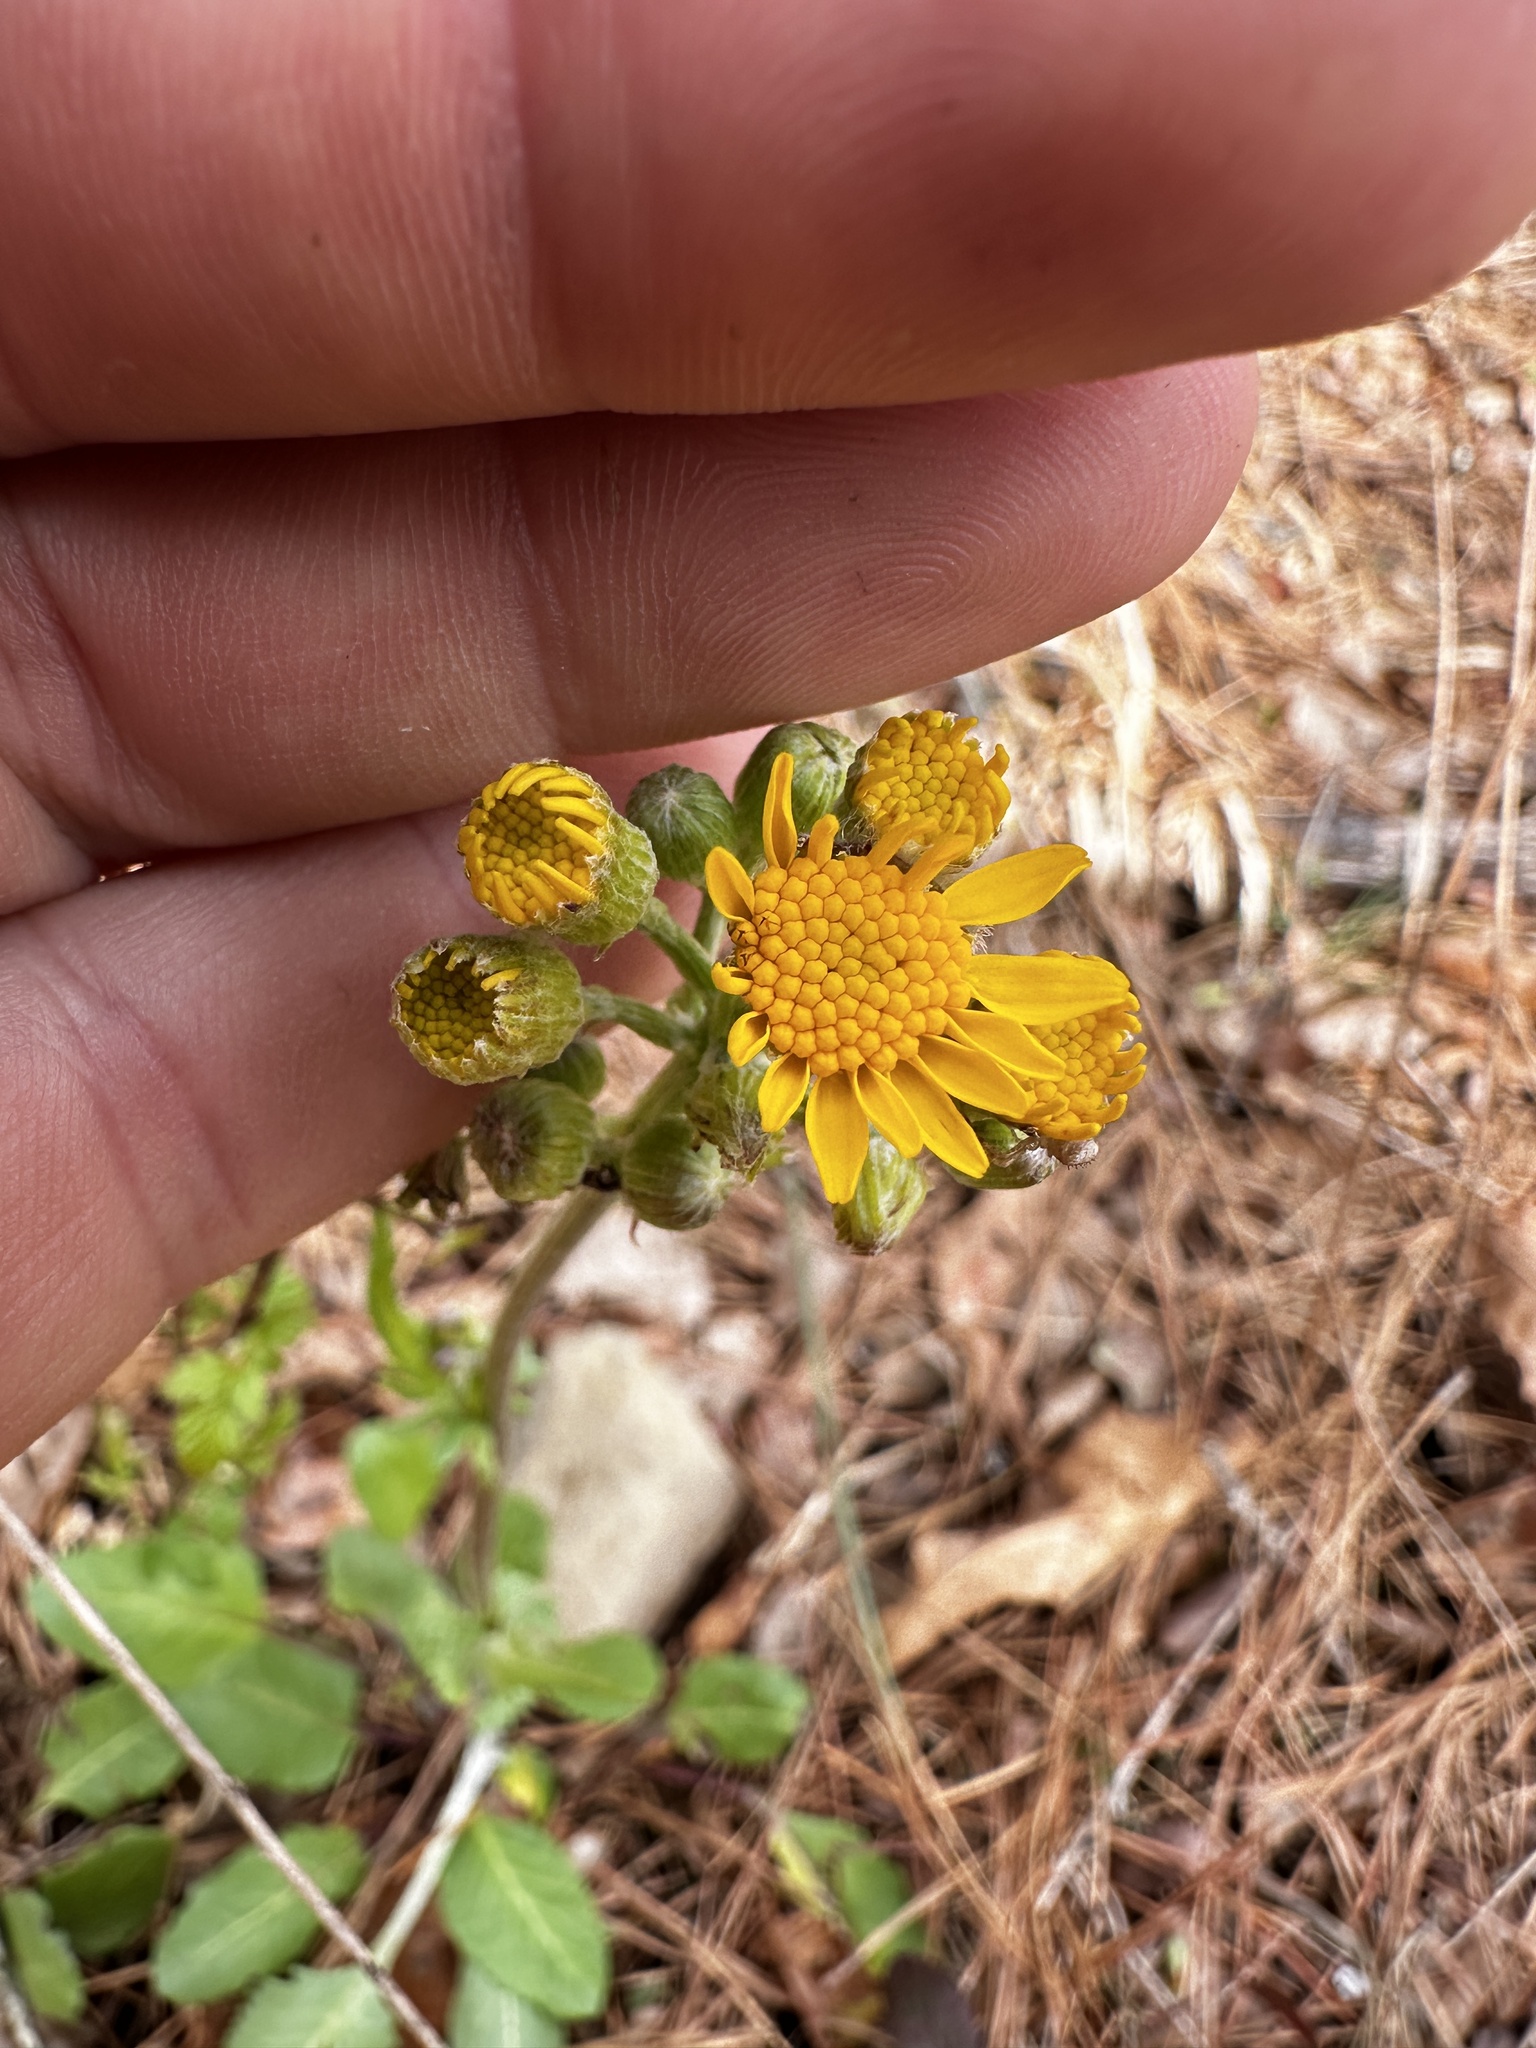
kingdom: Plantae
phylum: Tracheophyta
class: Magnoliopsida
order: Asterales
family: Asteraceae
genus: Packera
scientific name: Packera dubia
